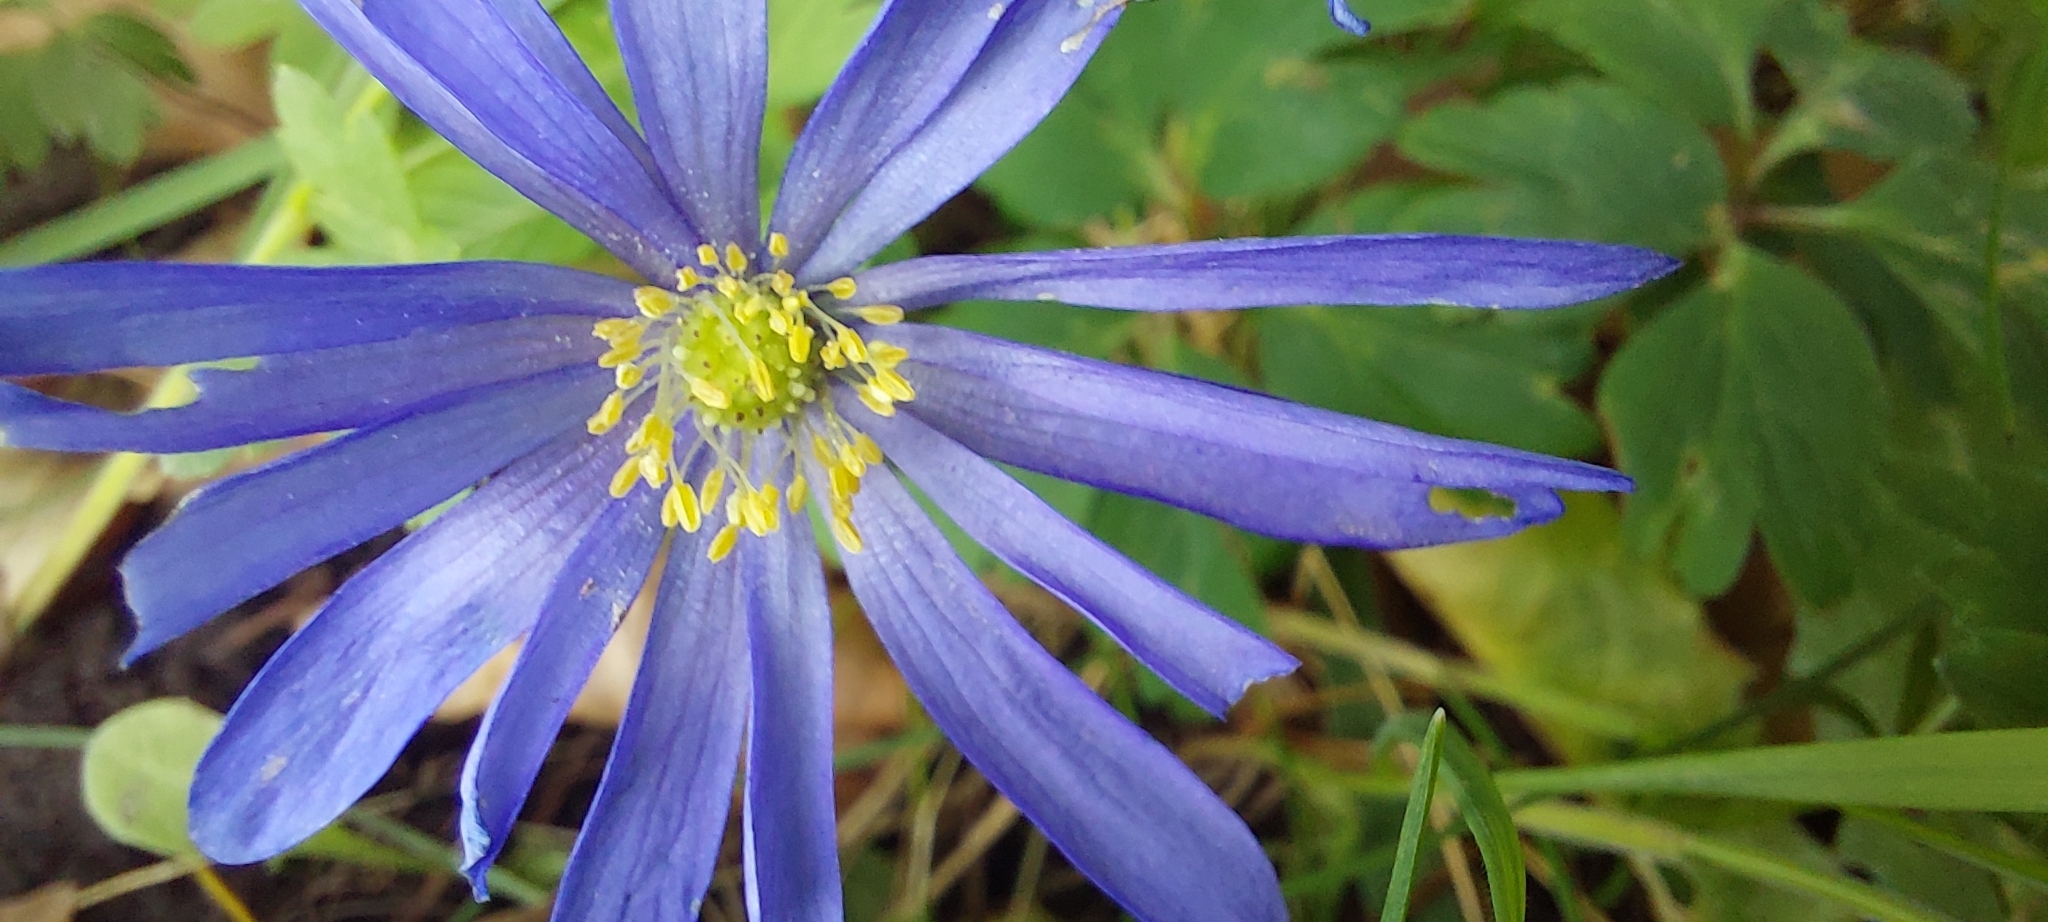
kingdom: Plantae
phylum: Tracheophyta
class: Magnoliopsida
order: Ranunculales
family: Ranunculaceae
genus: Anemone
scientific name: Anemone blanda
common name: Balkan anemone
